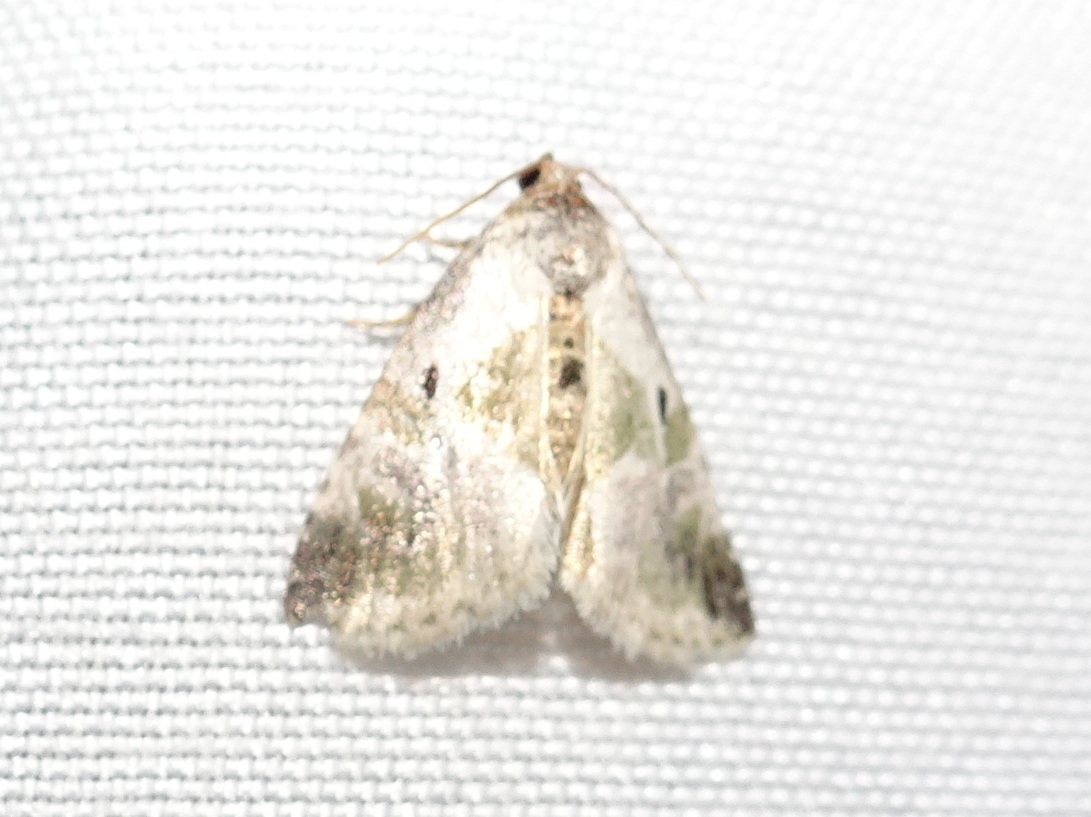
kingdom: Animalia
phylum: Arthropoda
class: Insecta
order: Lepidoptera
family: Noctuidae
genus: Maliattha
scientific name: Maliattha synochitis
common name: Black-dotted glyph
